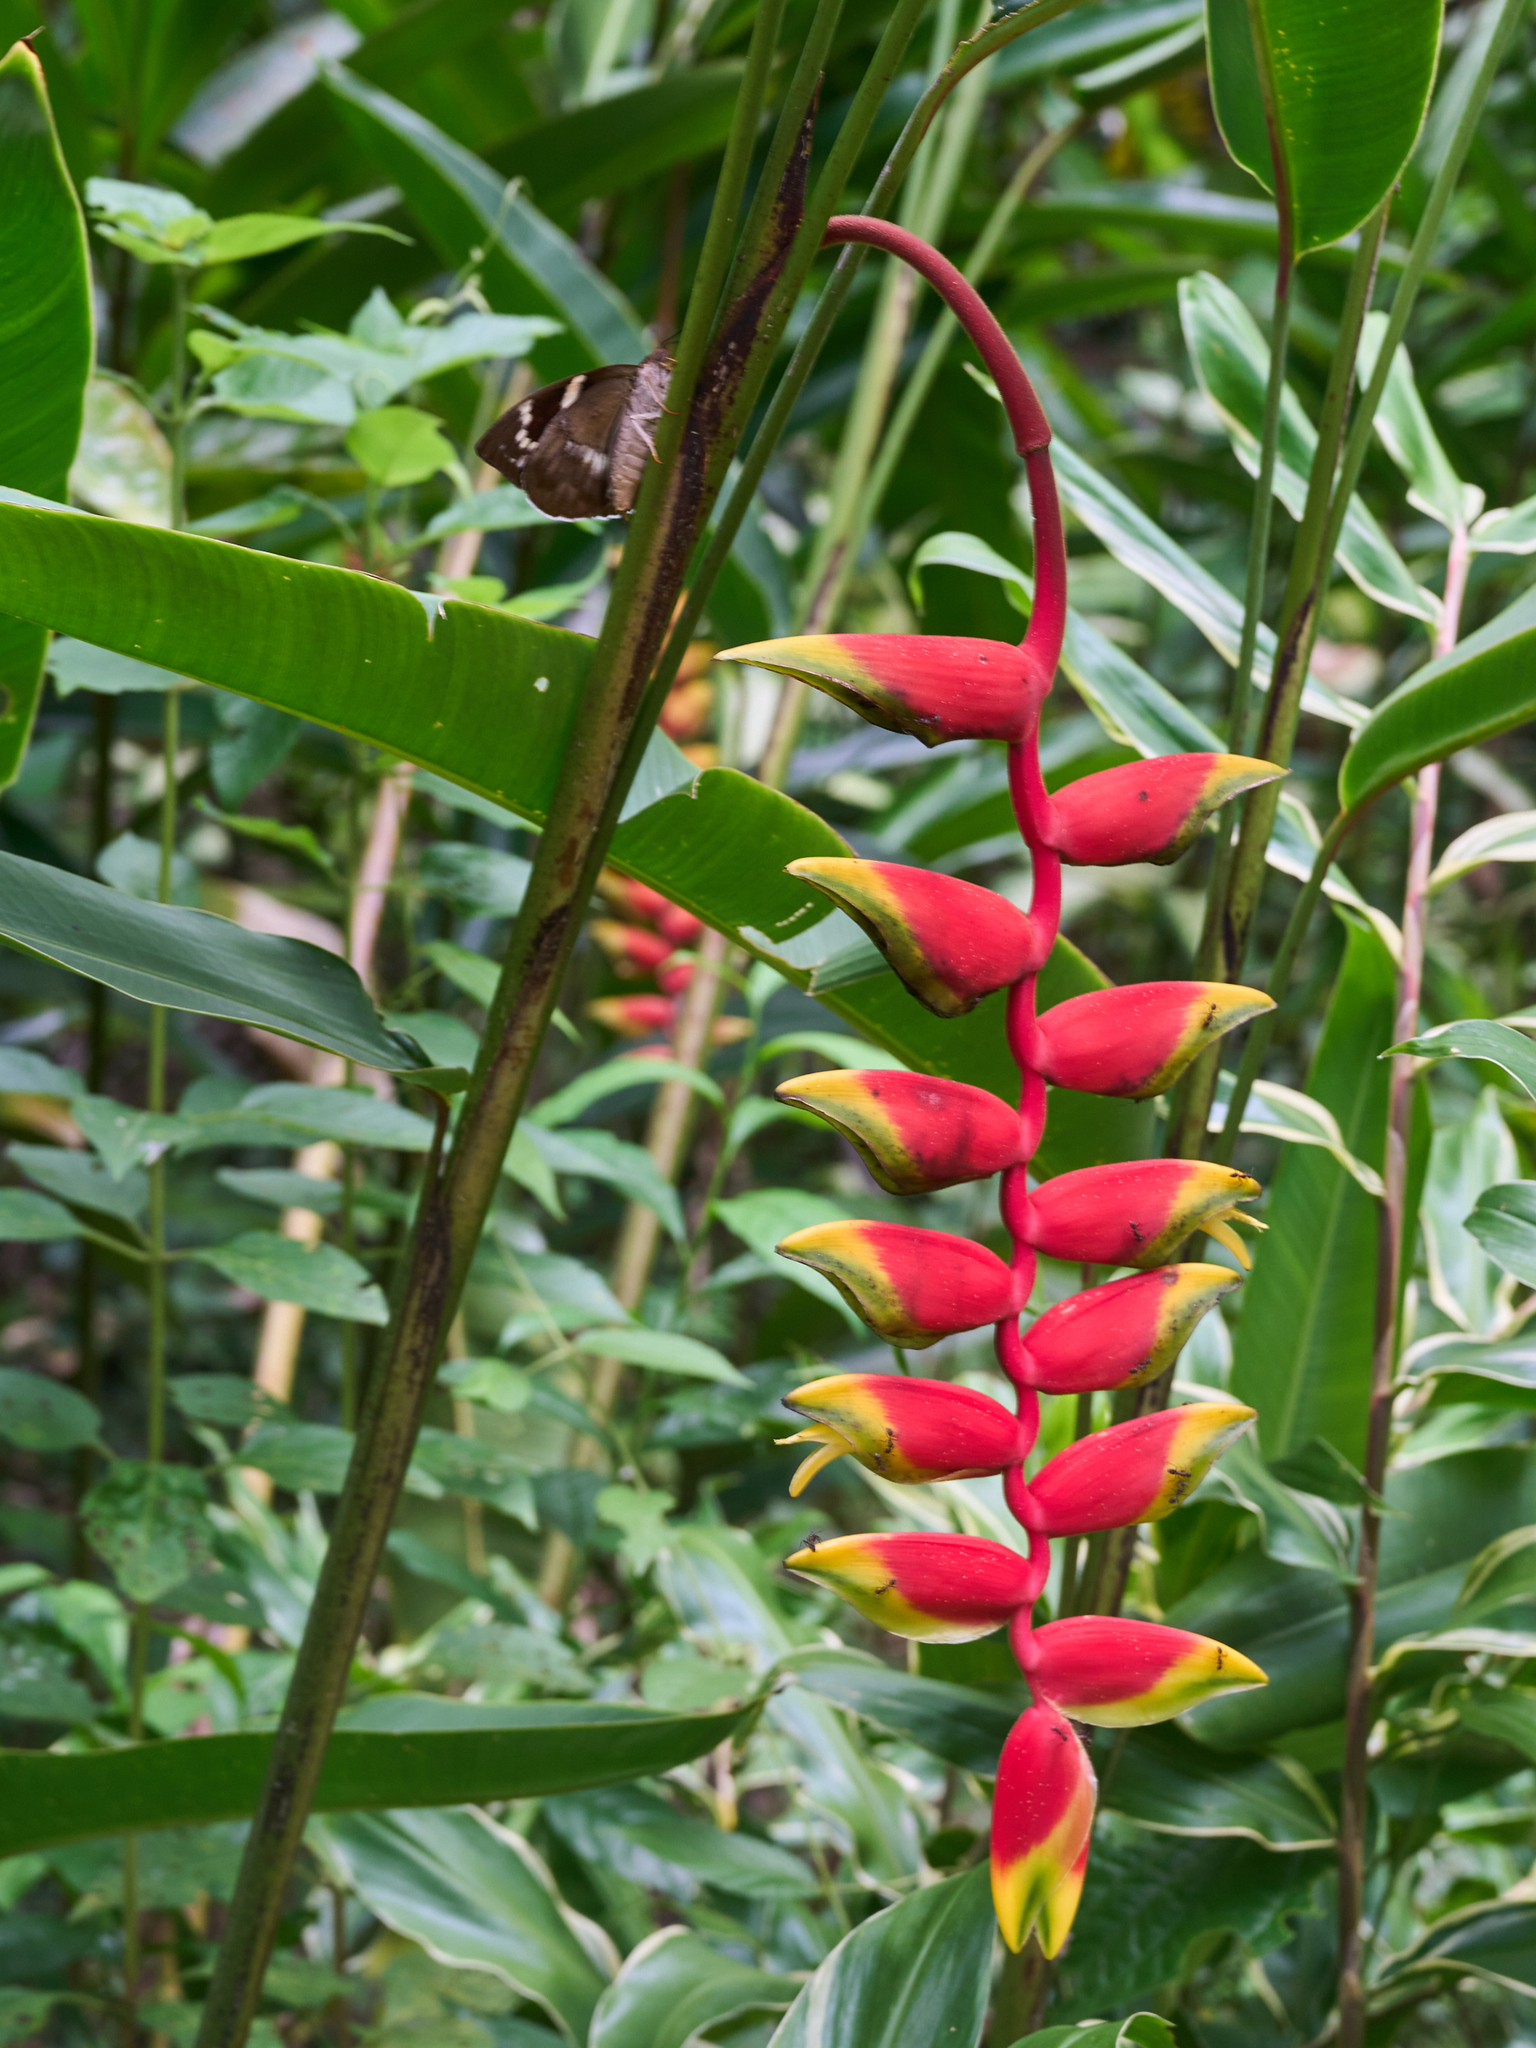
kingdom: Animalia
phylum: Arthropoda
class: Insecta
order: Lepidoptera
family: Castniidae
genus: Castniomera
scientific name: Castniomera atymnius
